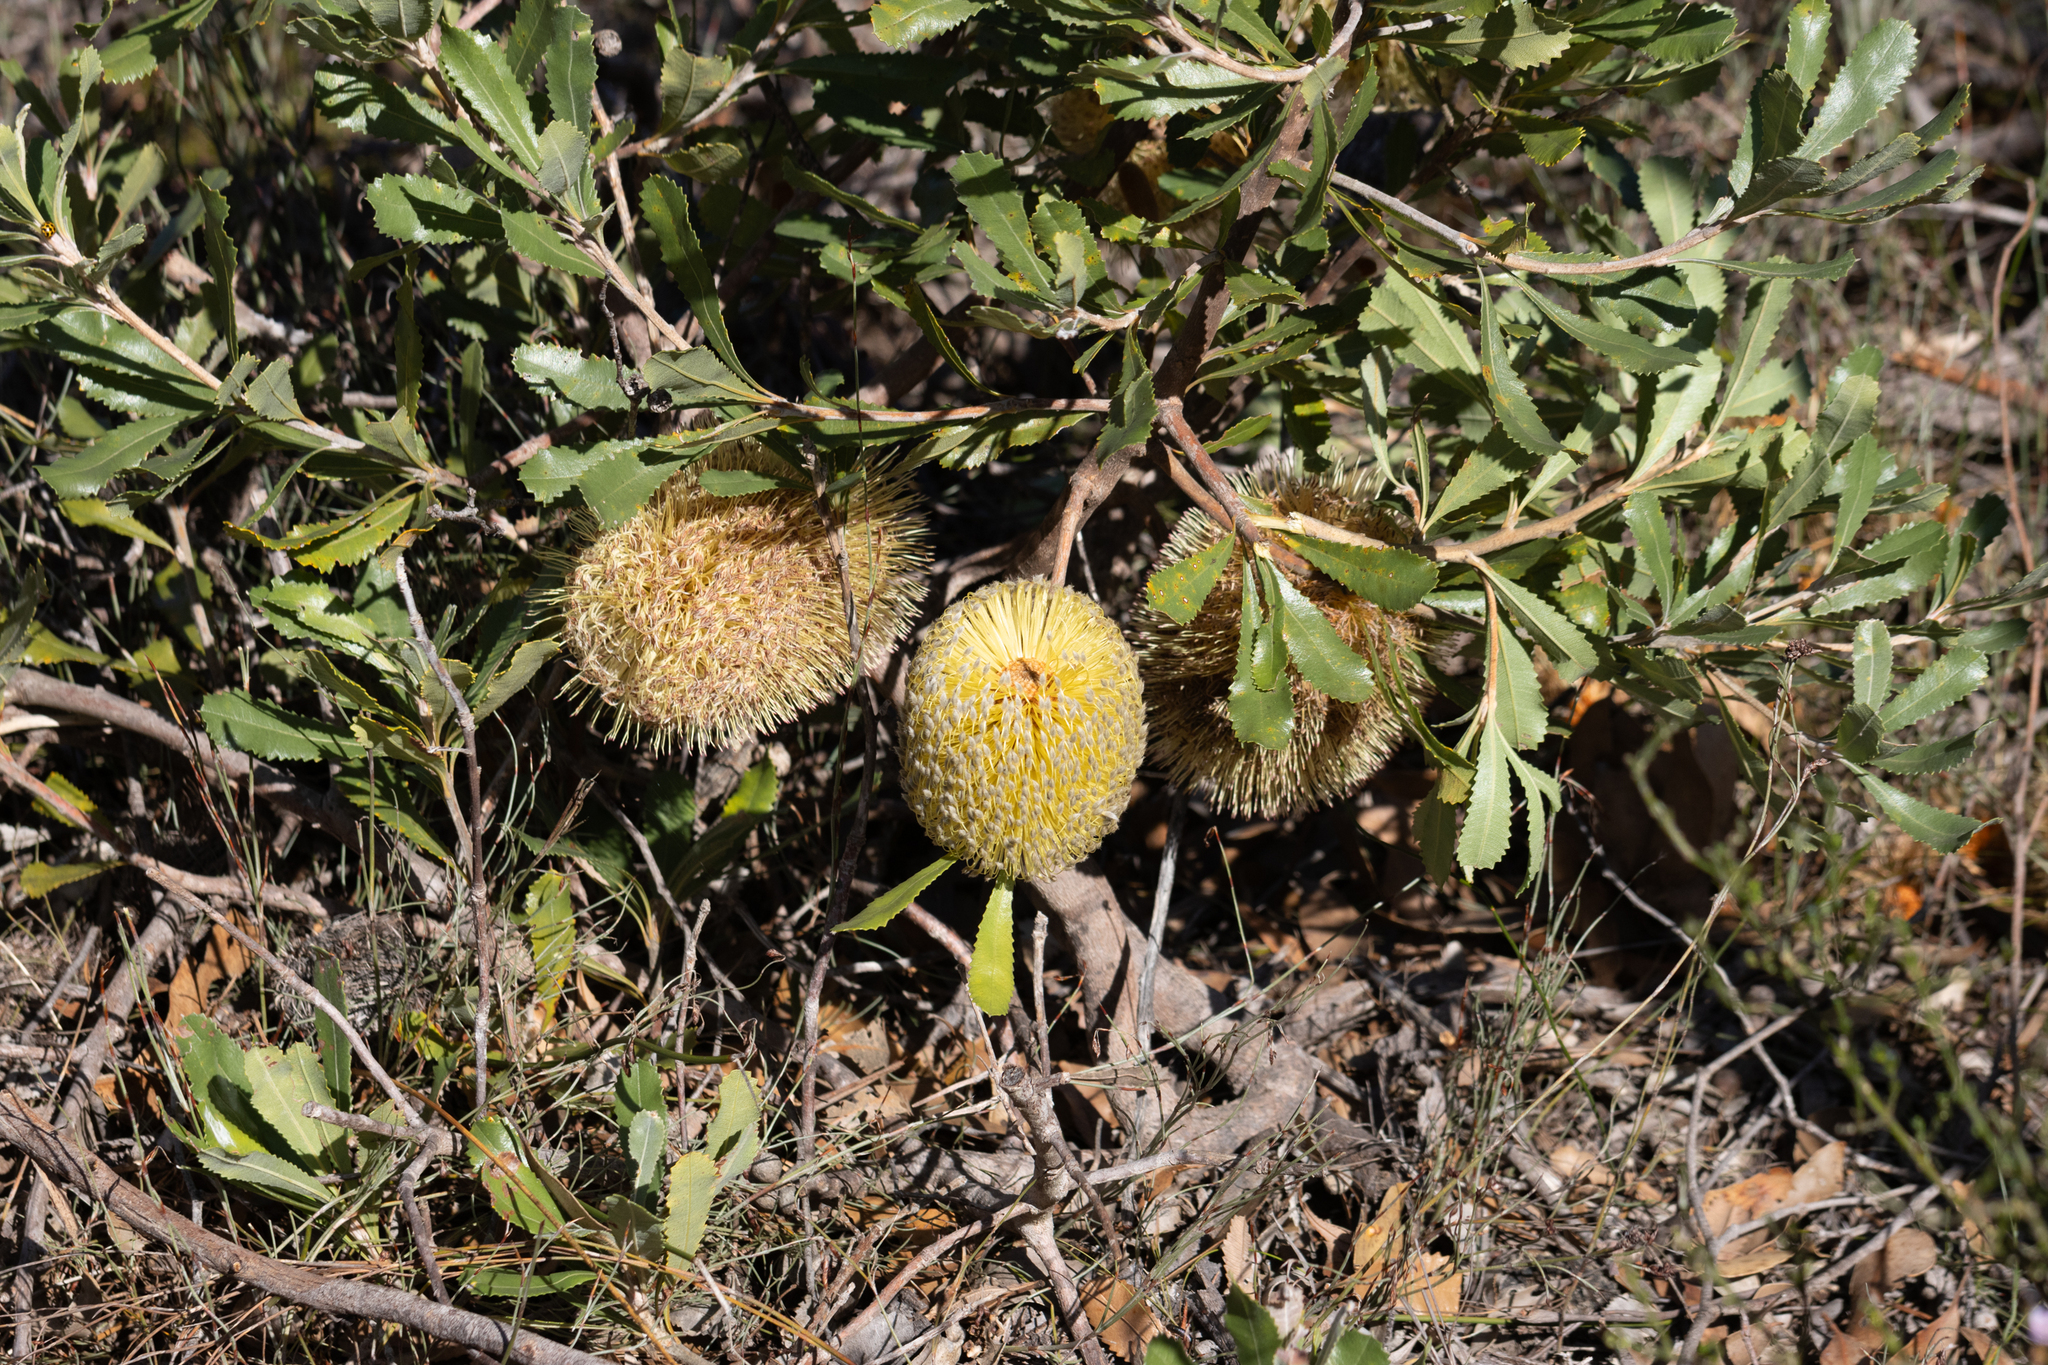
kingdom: Plantae
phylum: Tracheophyta
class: Magnoliopsida
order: Proteales
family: Proteaceae
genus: Banksia
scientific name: Banksia ornata
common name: Desert banksia
